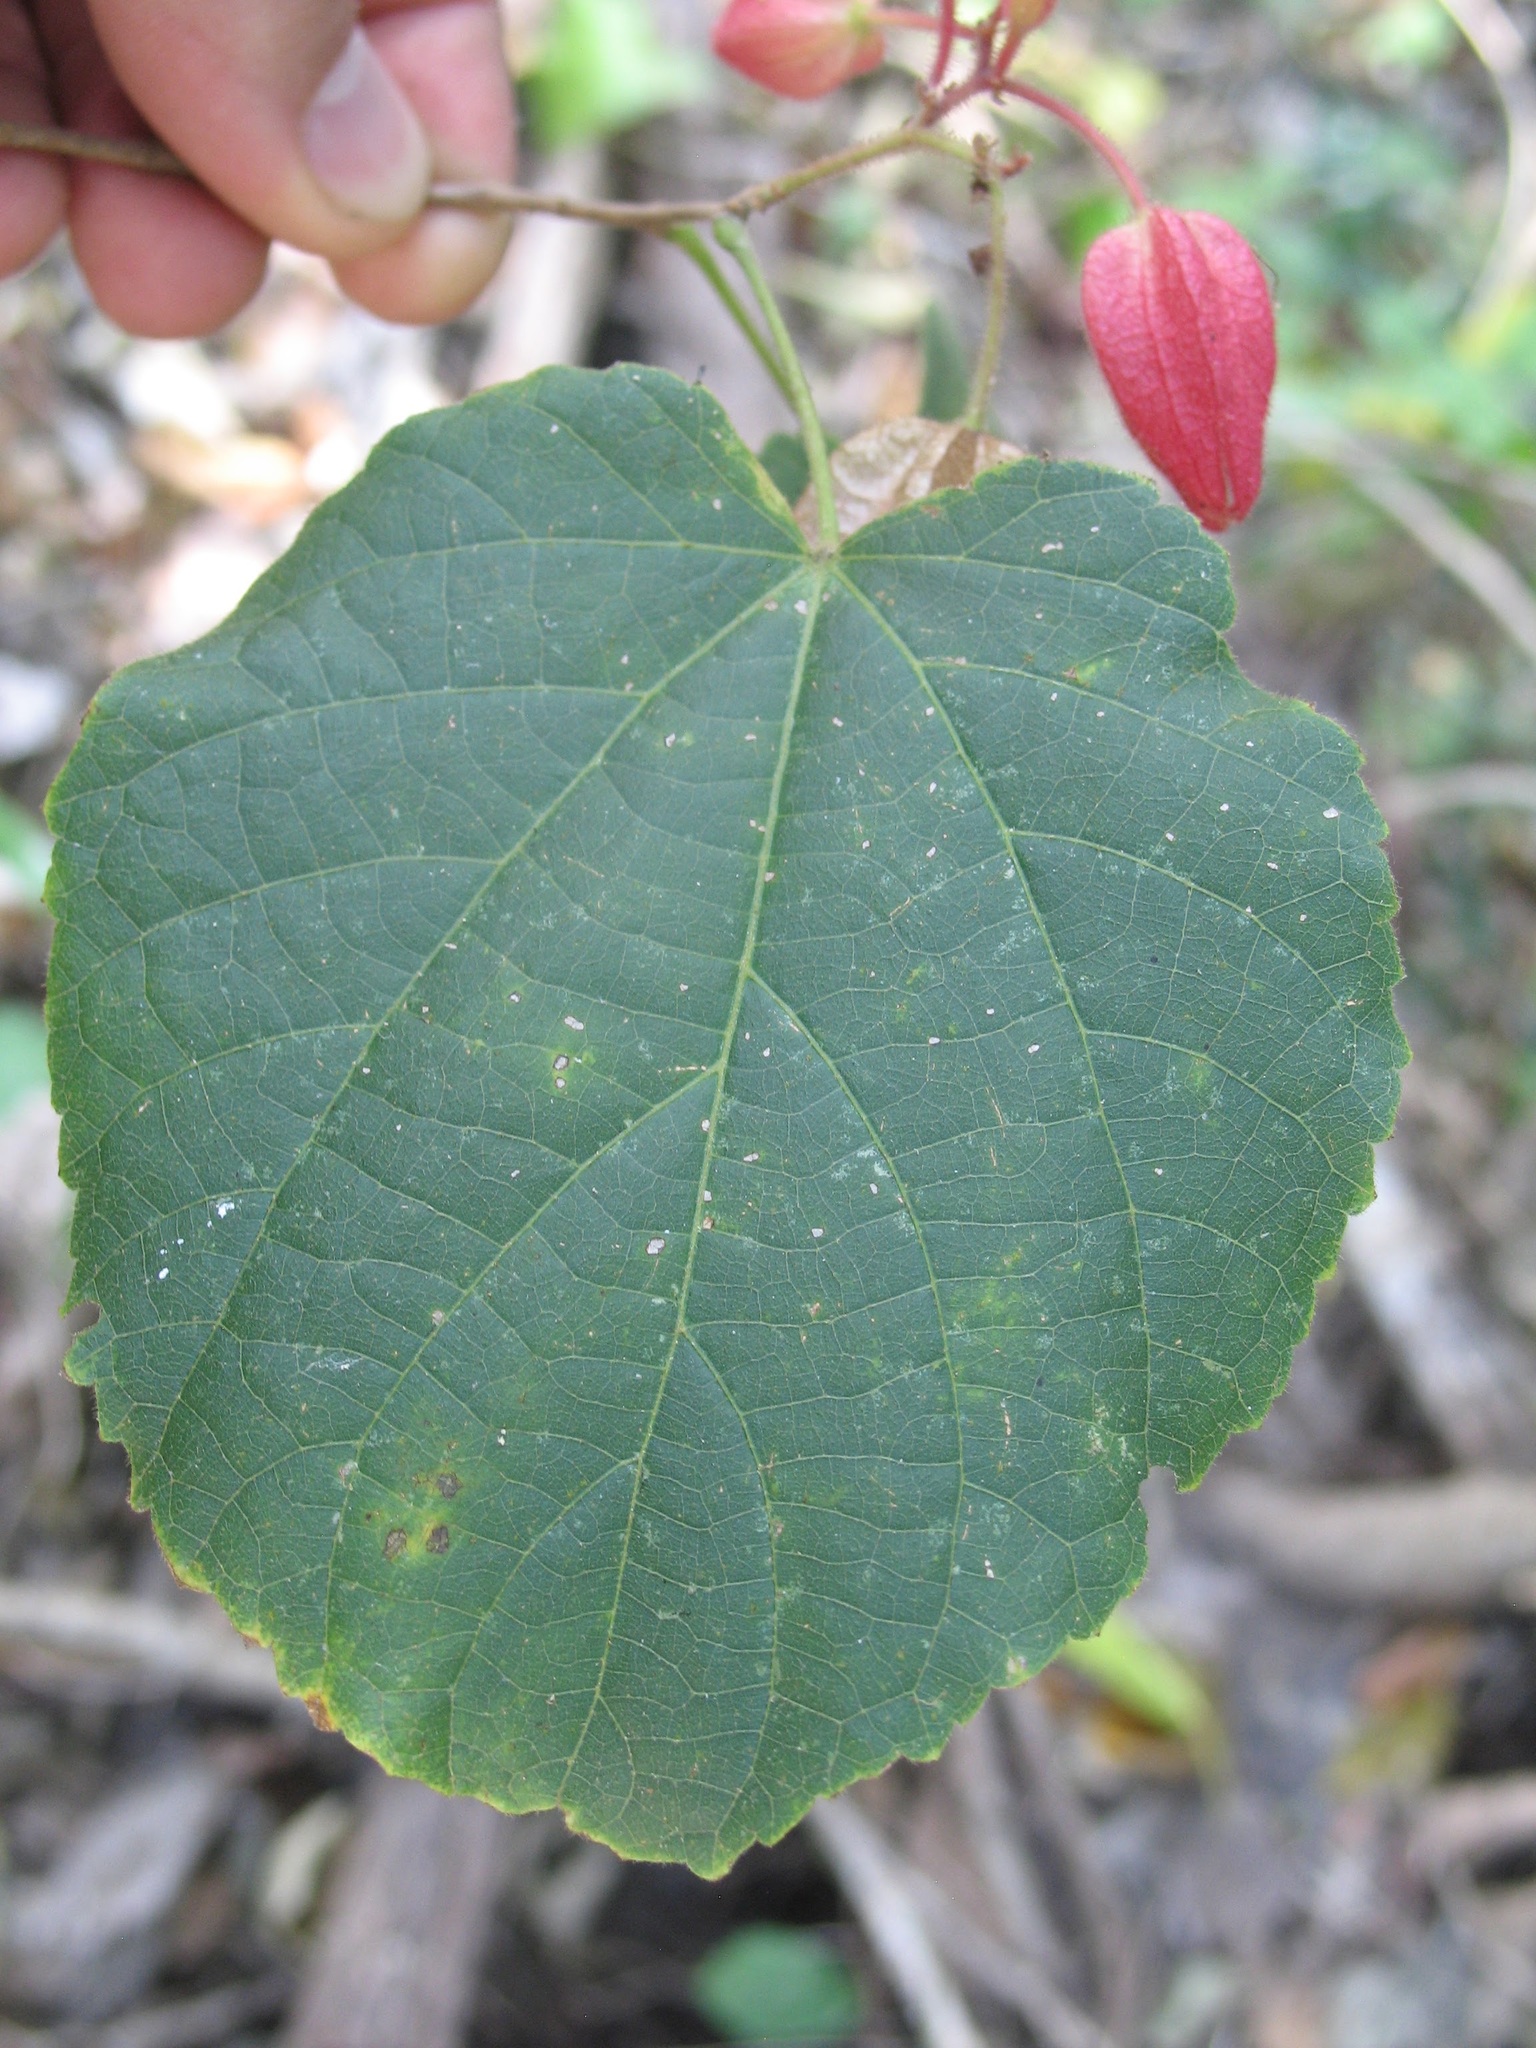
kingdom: Plantae
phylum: Tracheophyta
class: Magnoliopsida
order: Malvales
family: Malvaceae
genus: Physodium
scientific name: Physodium adenodes
